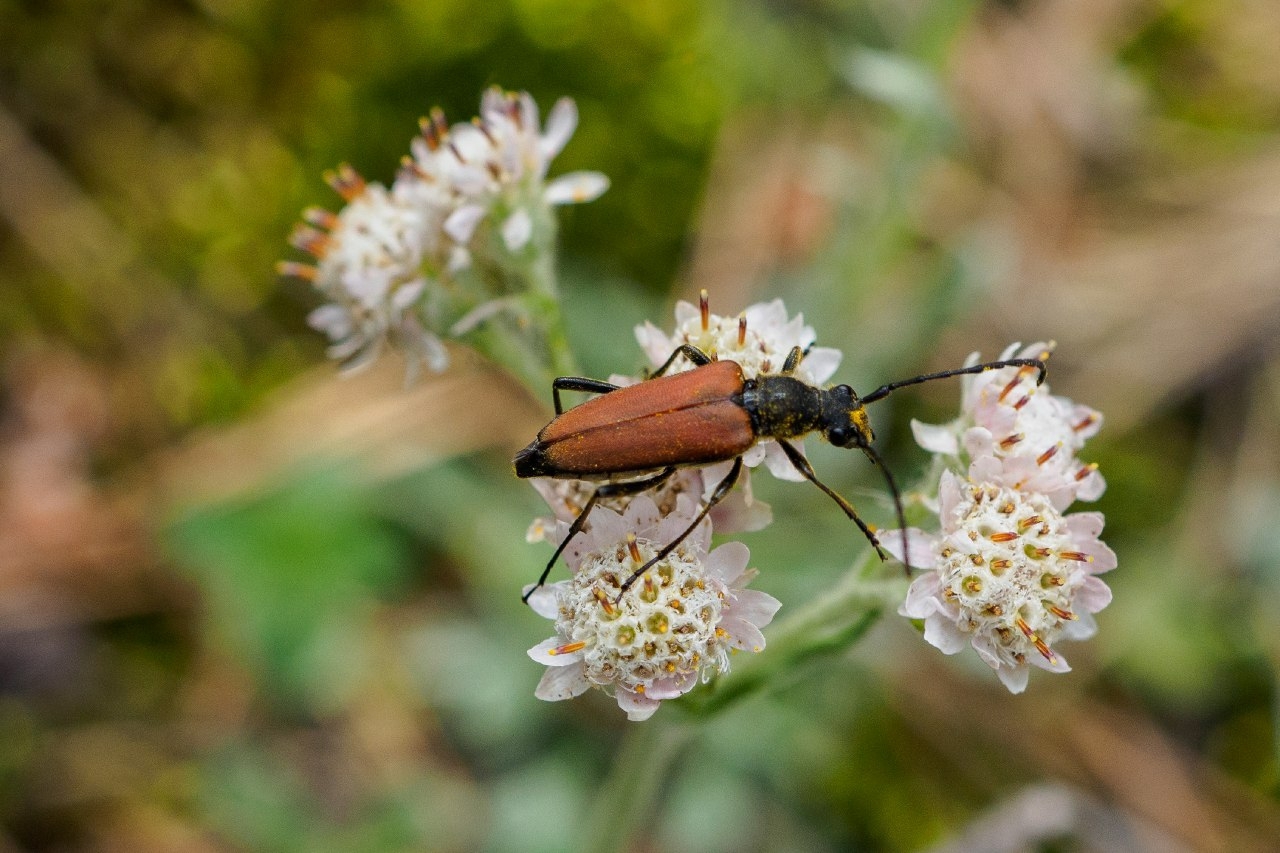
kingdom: Animalia
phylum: Arthropoda
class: Insecta
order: Coleoptera
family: Cerambycidae
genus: Anastrangalia
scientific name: Anastrangalia reyi
